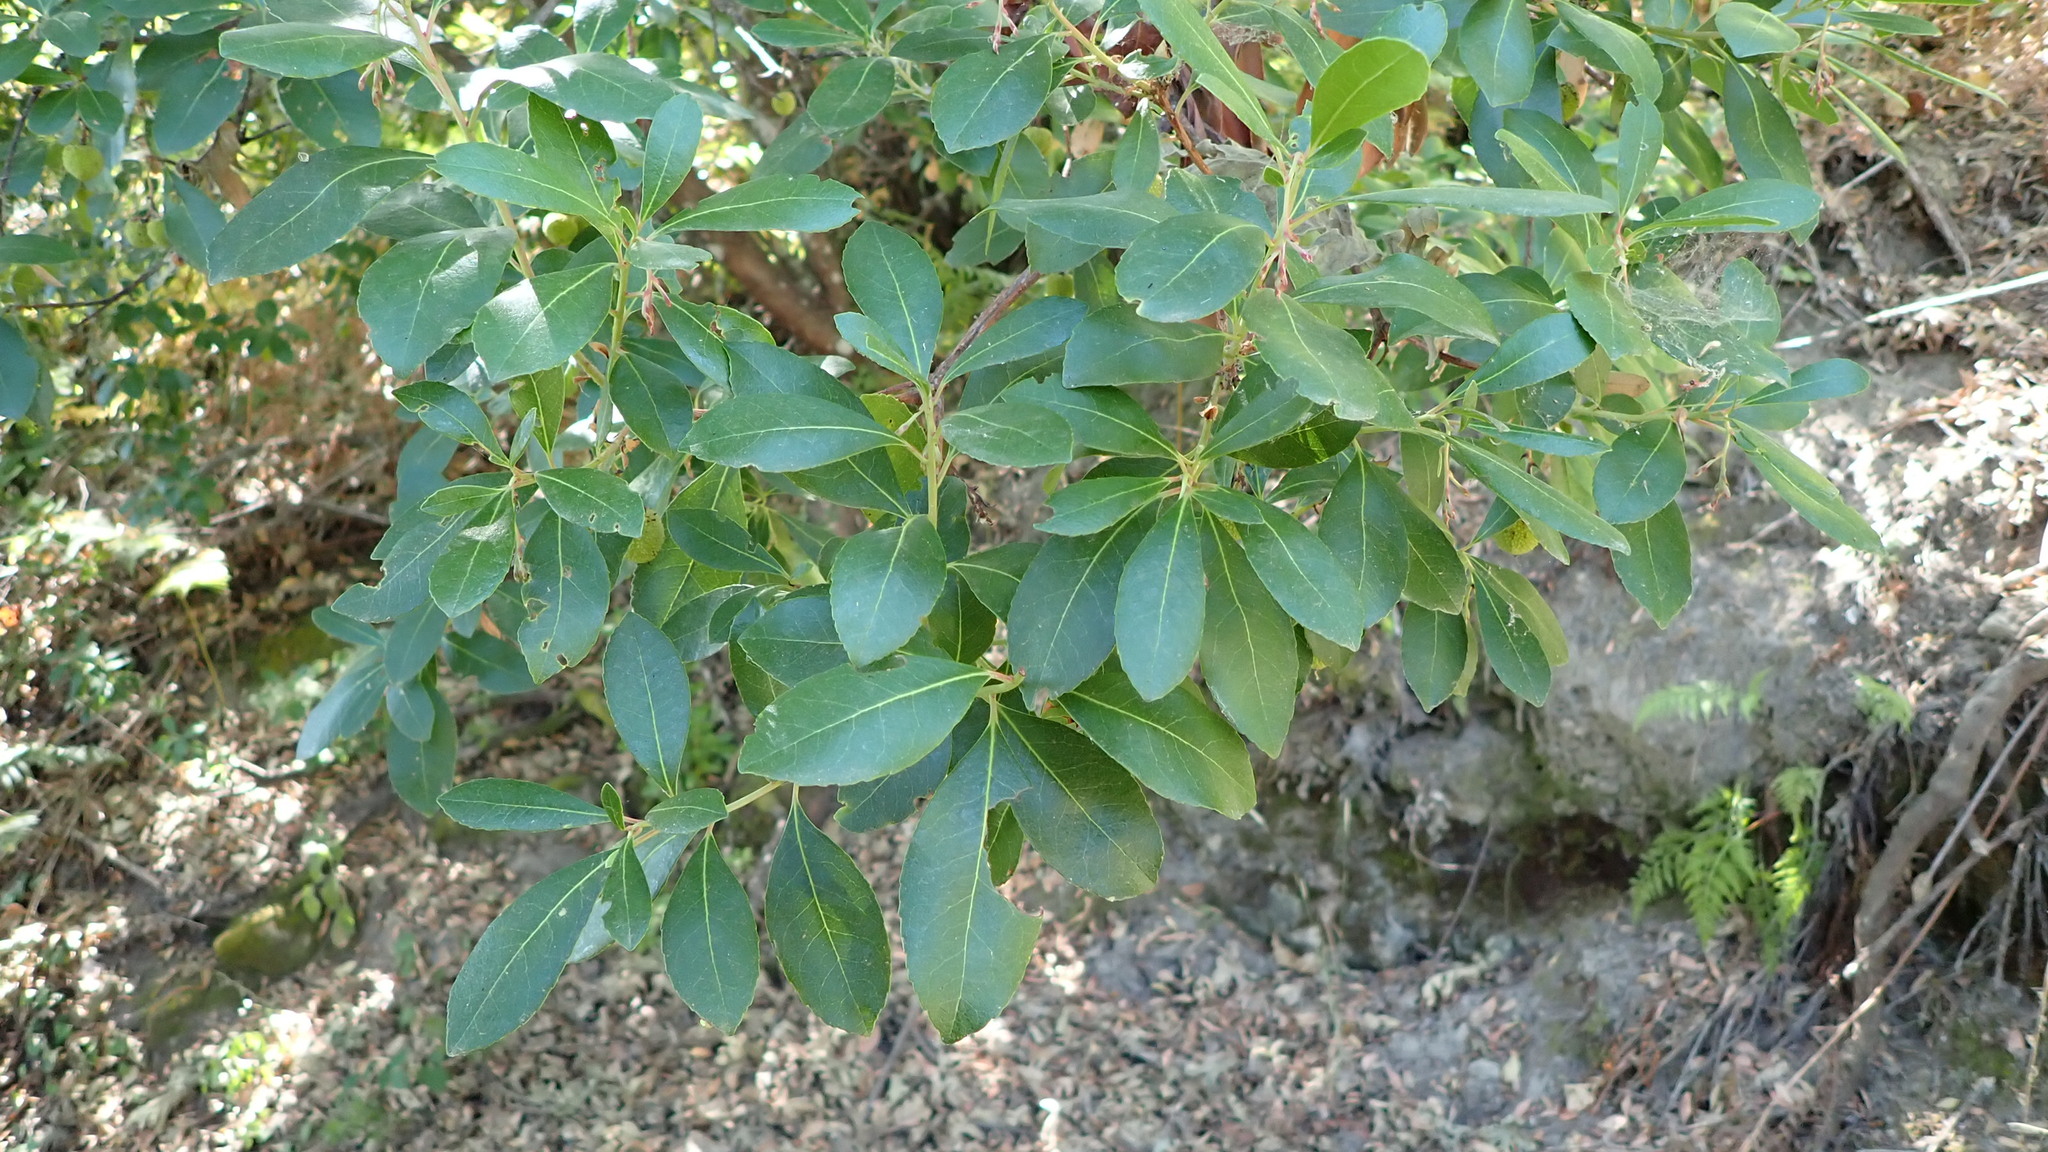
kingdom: Plantae
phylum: Tracheophyta
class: Magnoliopsida
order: Ericales
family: Ericaceae
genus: Arbutus
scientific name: Arbutus unedo
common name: Strawberry-tree
